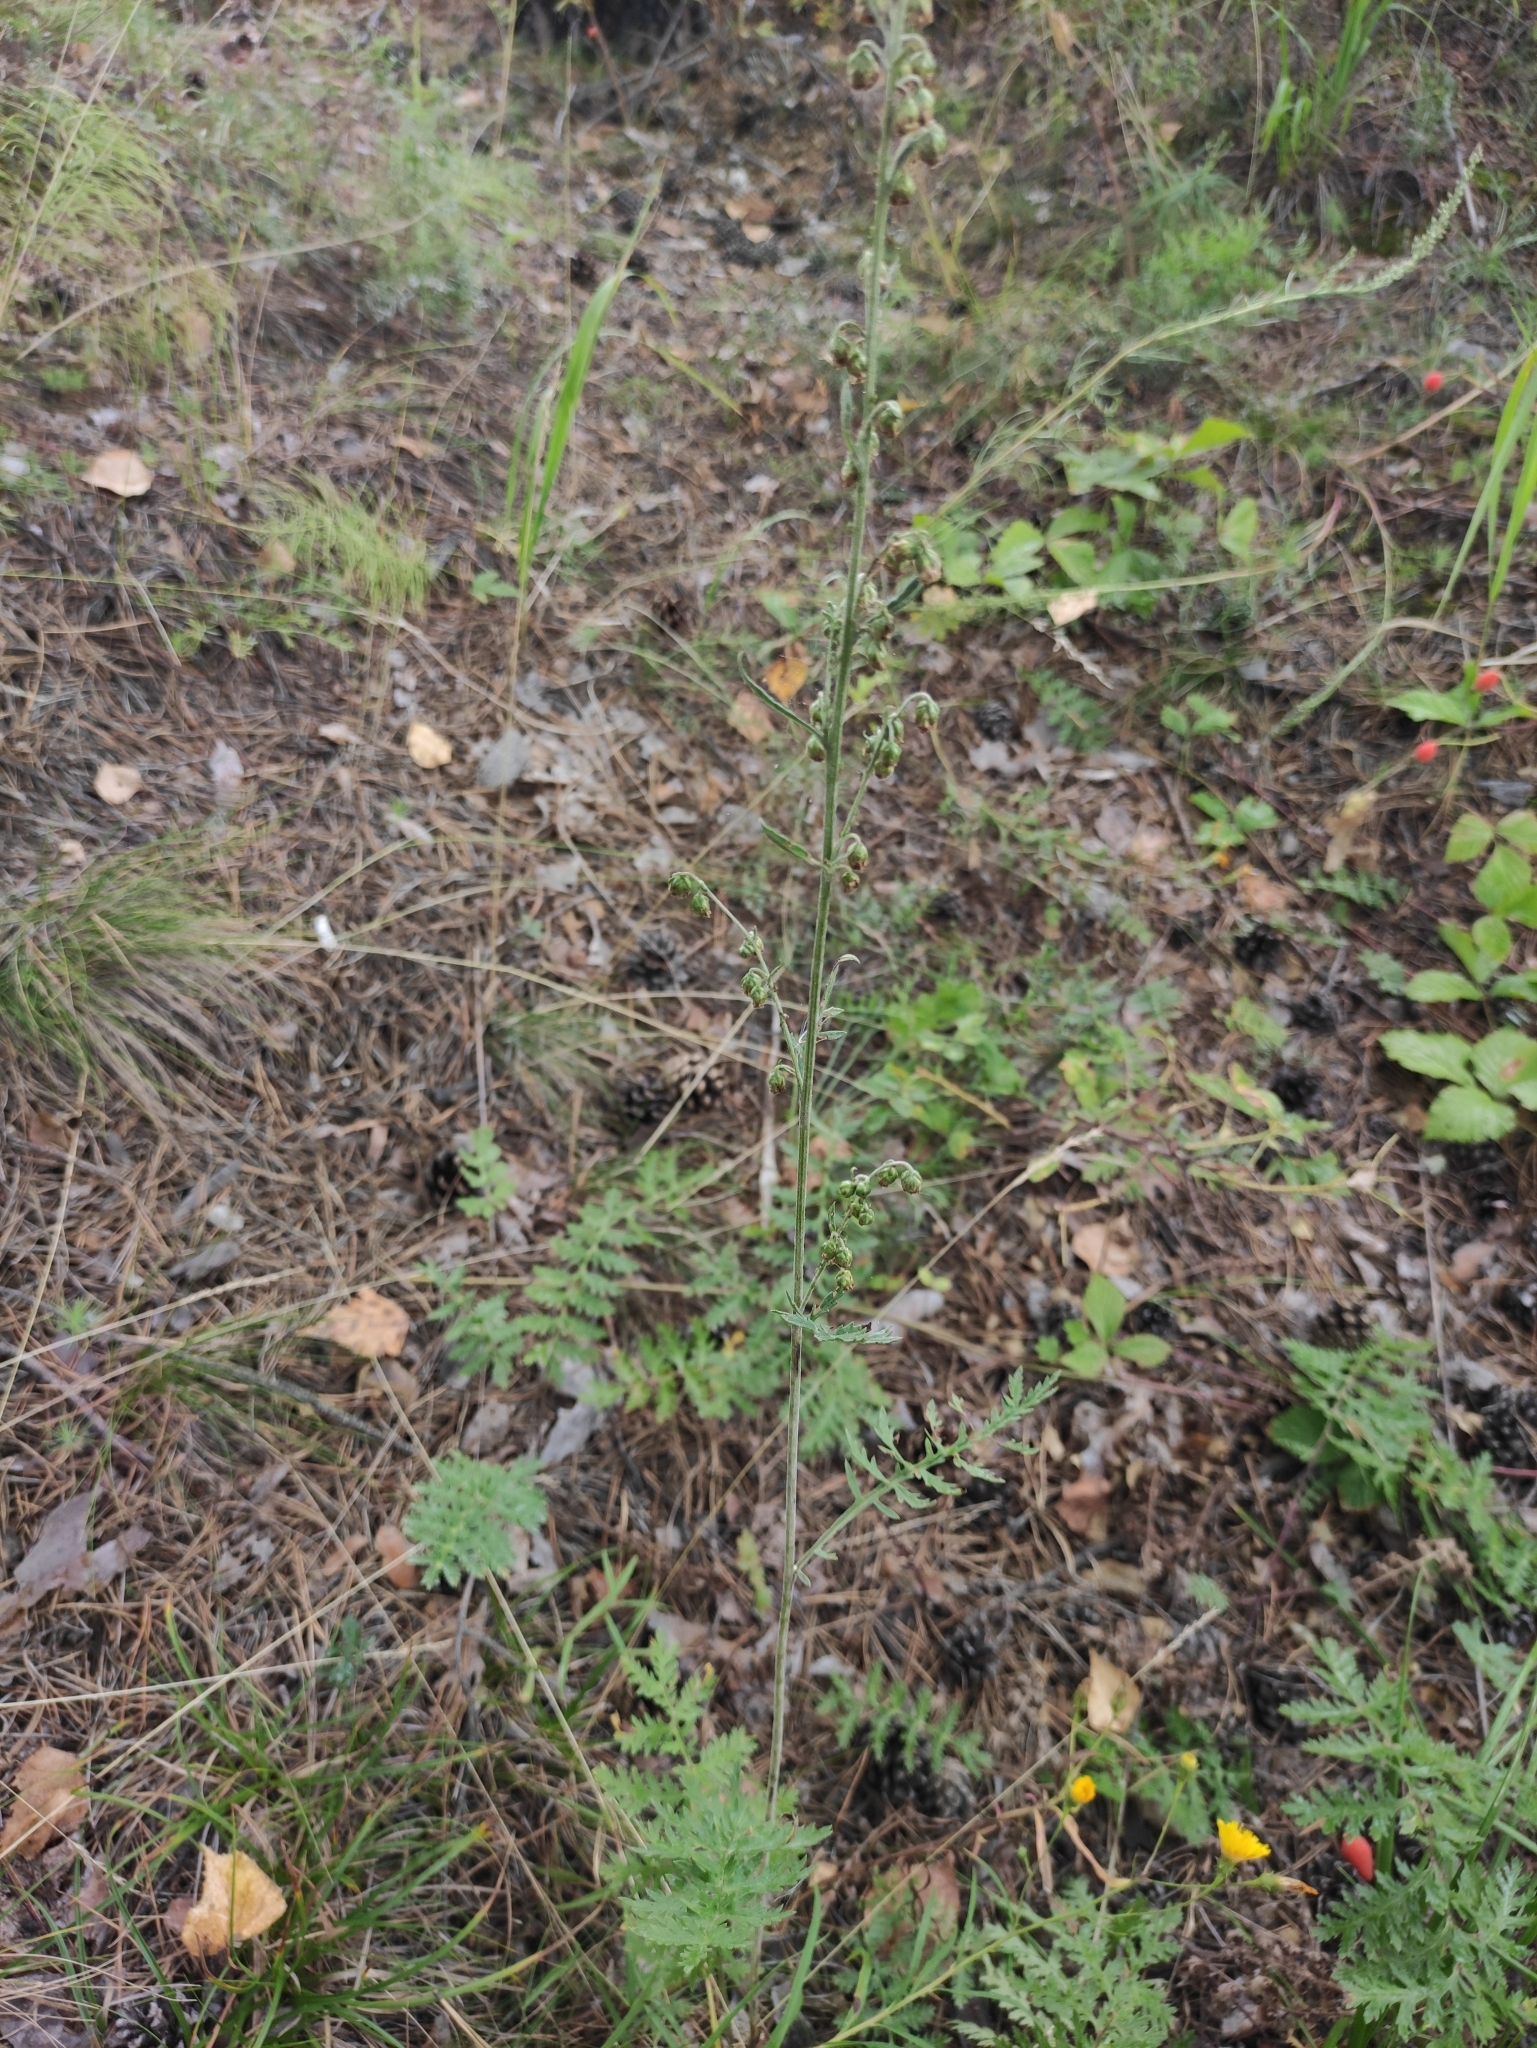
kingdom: Plantae
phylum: Tracheophyta
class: Magnoliopsida
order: Asterales
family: Asteraceae
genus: Artemisia
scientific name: Artemisia tanacetifolia
